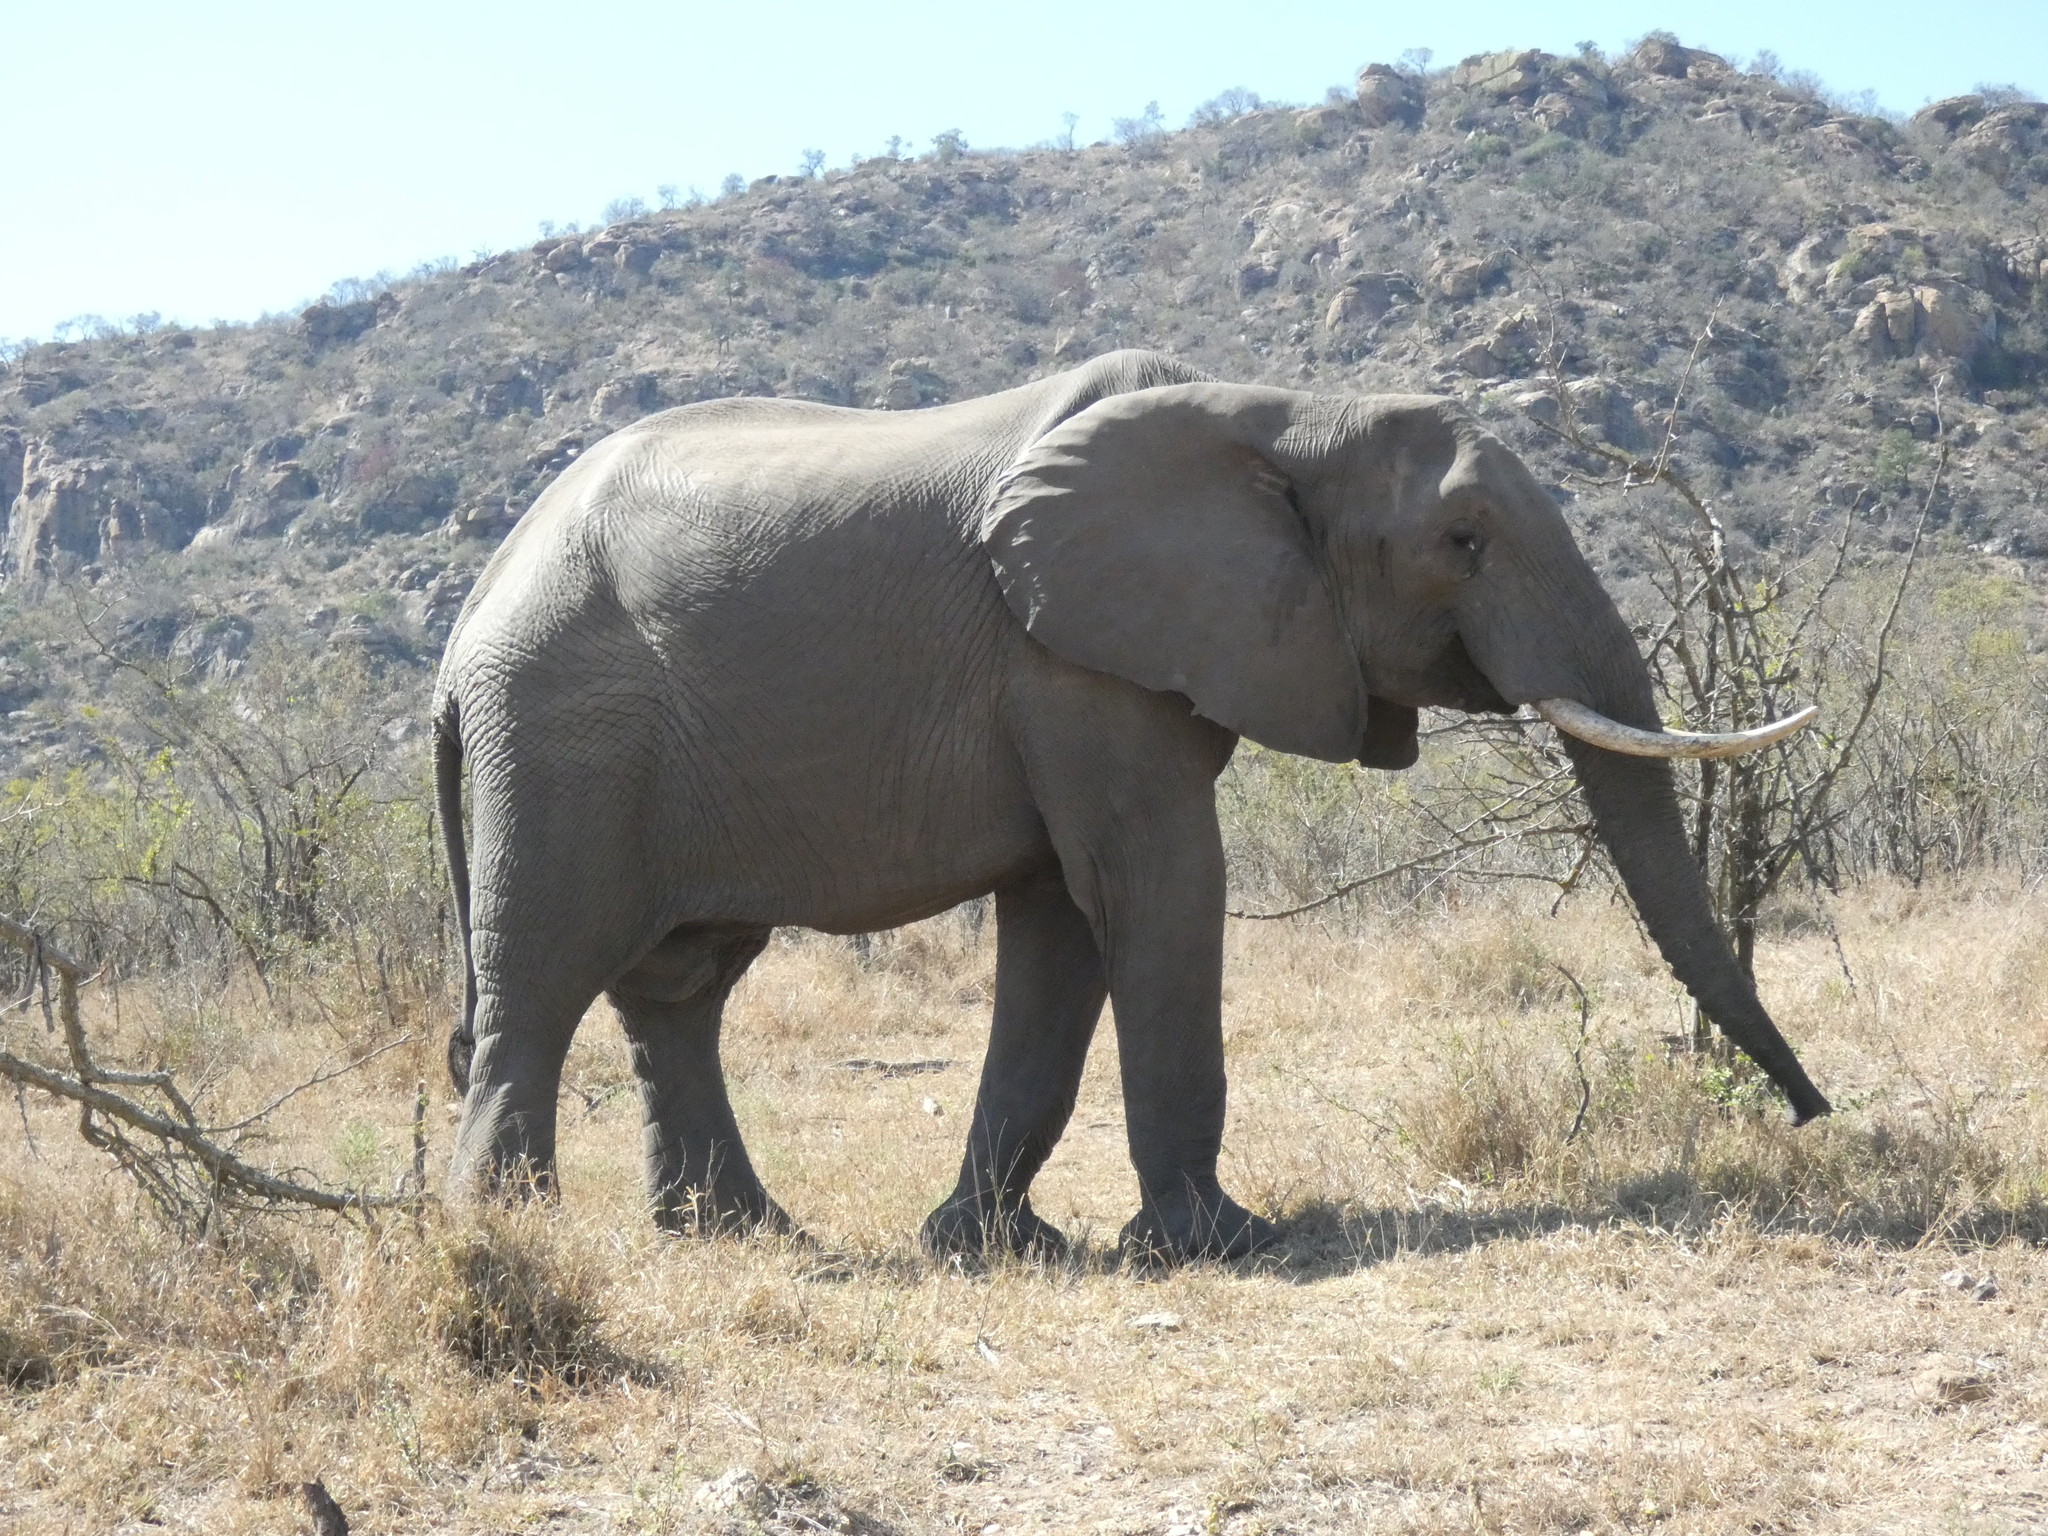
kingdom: Animalia
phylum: Chordata
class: Mammalia
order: Proboscidea
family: Elephantidae
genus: Loxodonta
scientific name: Loxodonta africana
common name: African elephant
